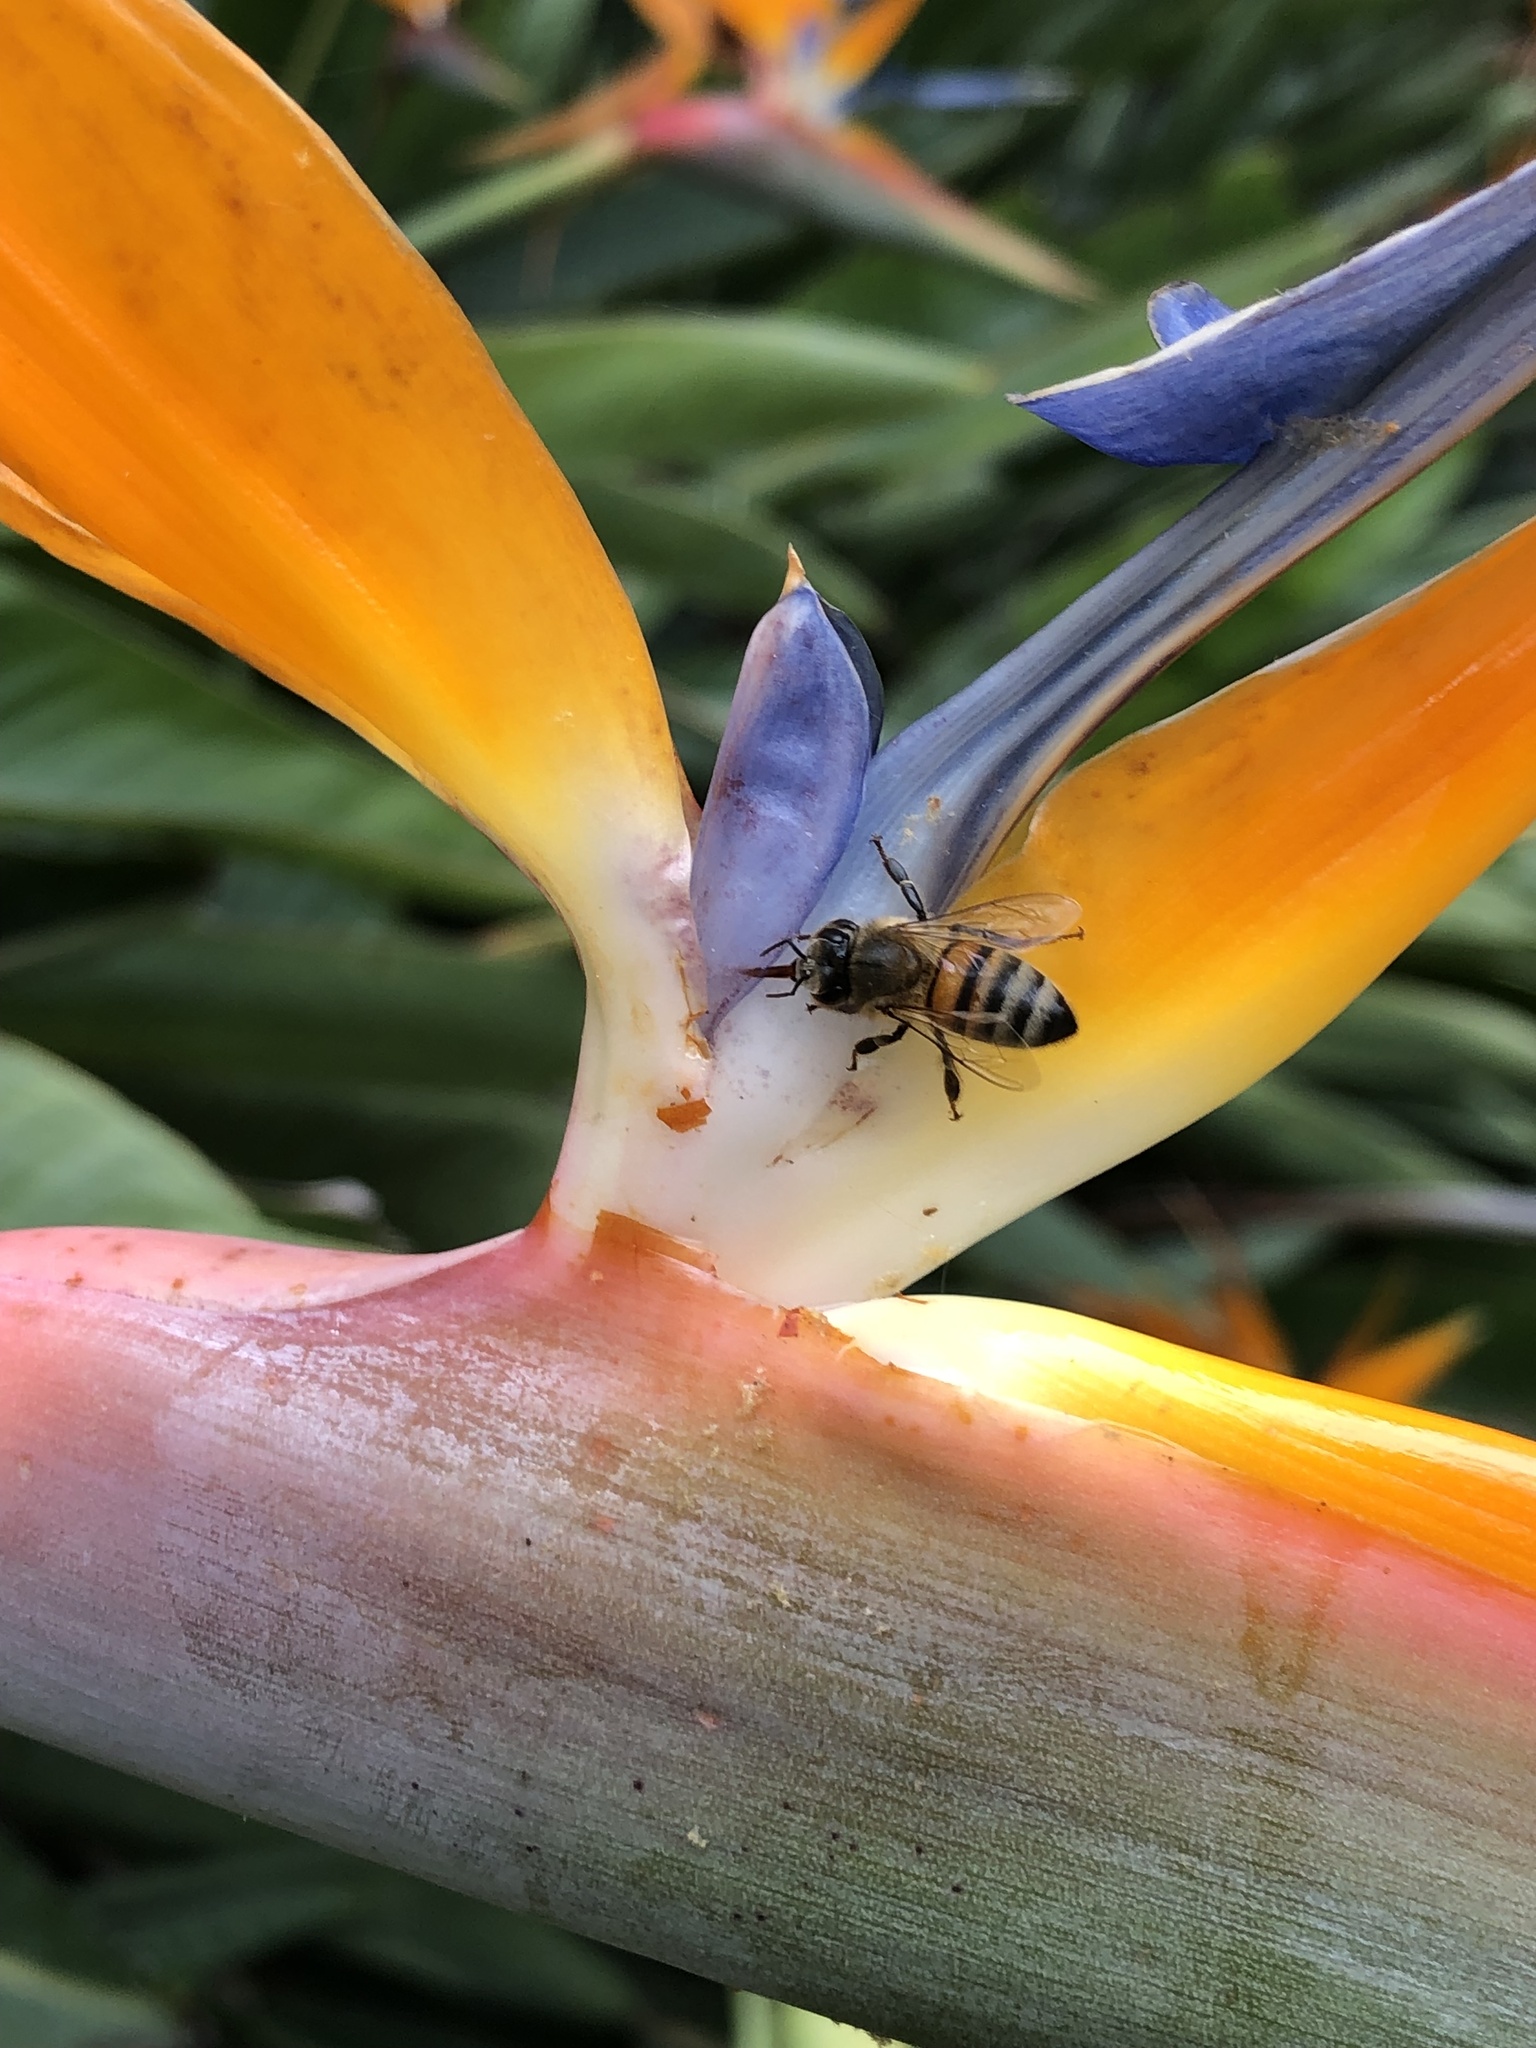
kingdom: Animalia
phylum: Arthropoda
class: Insecta
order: Hymenoptera
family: Apidae
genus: Apis
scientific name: Apis mellifera
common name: Honey bee
